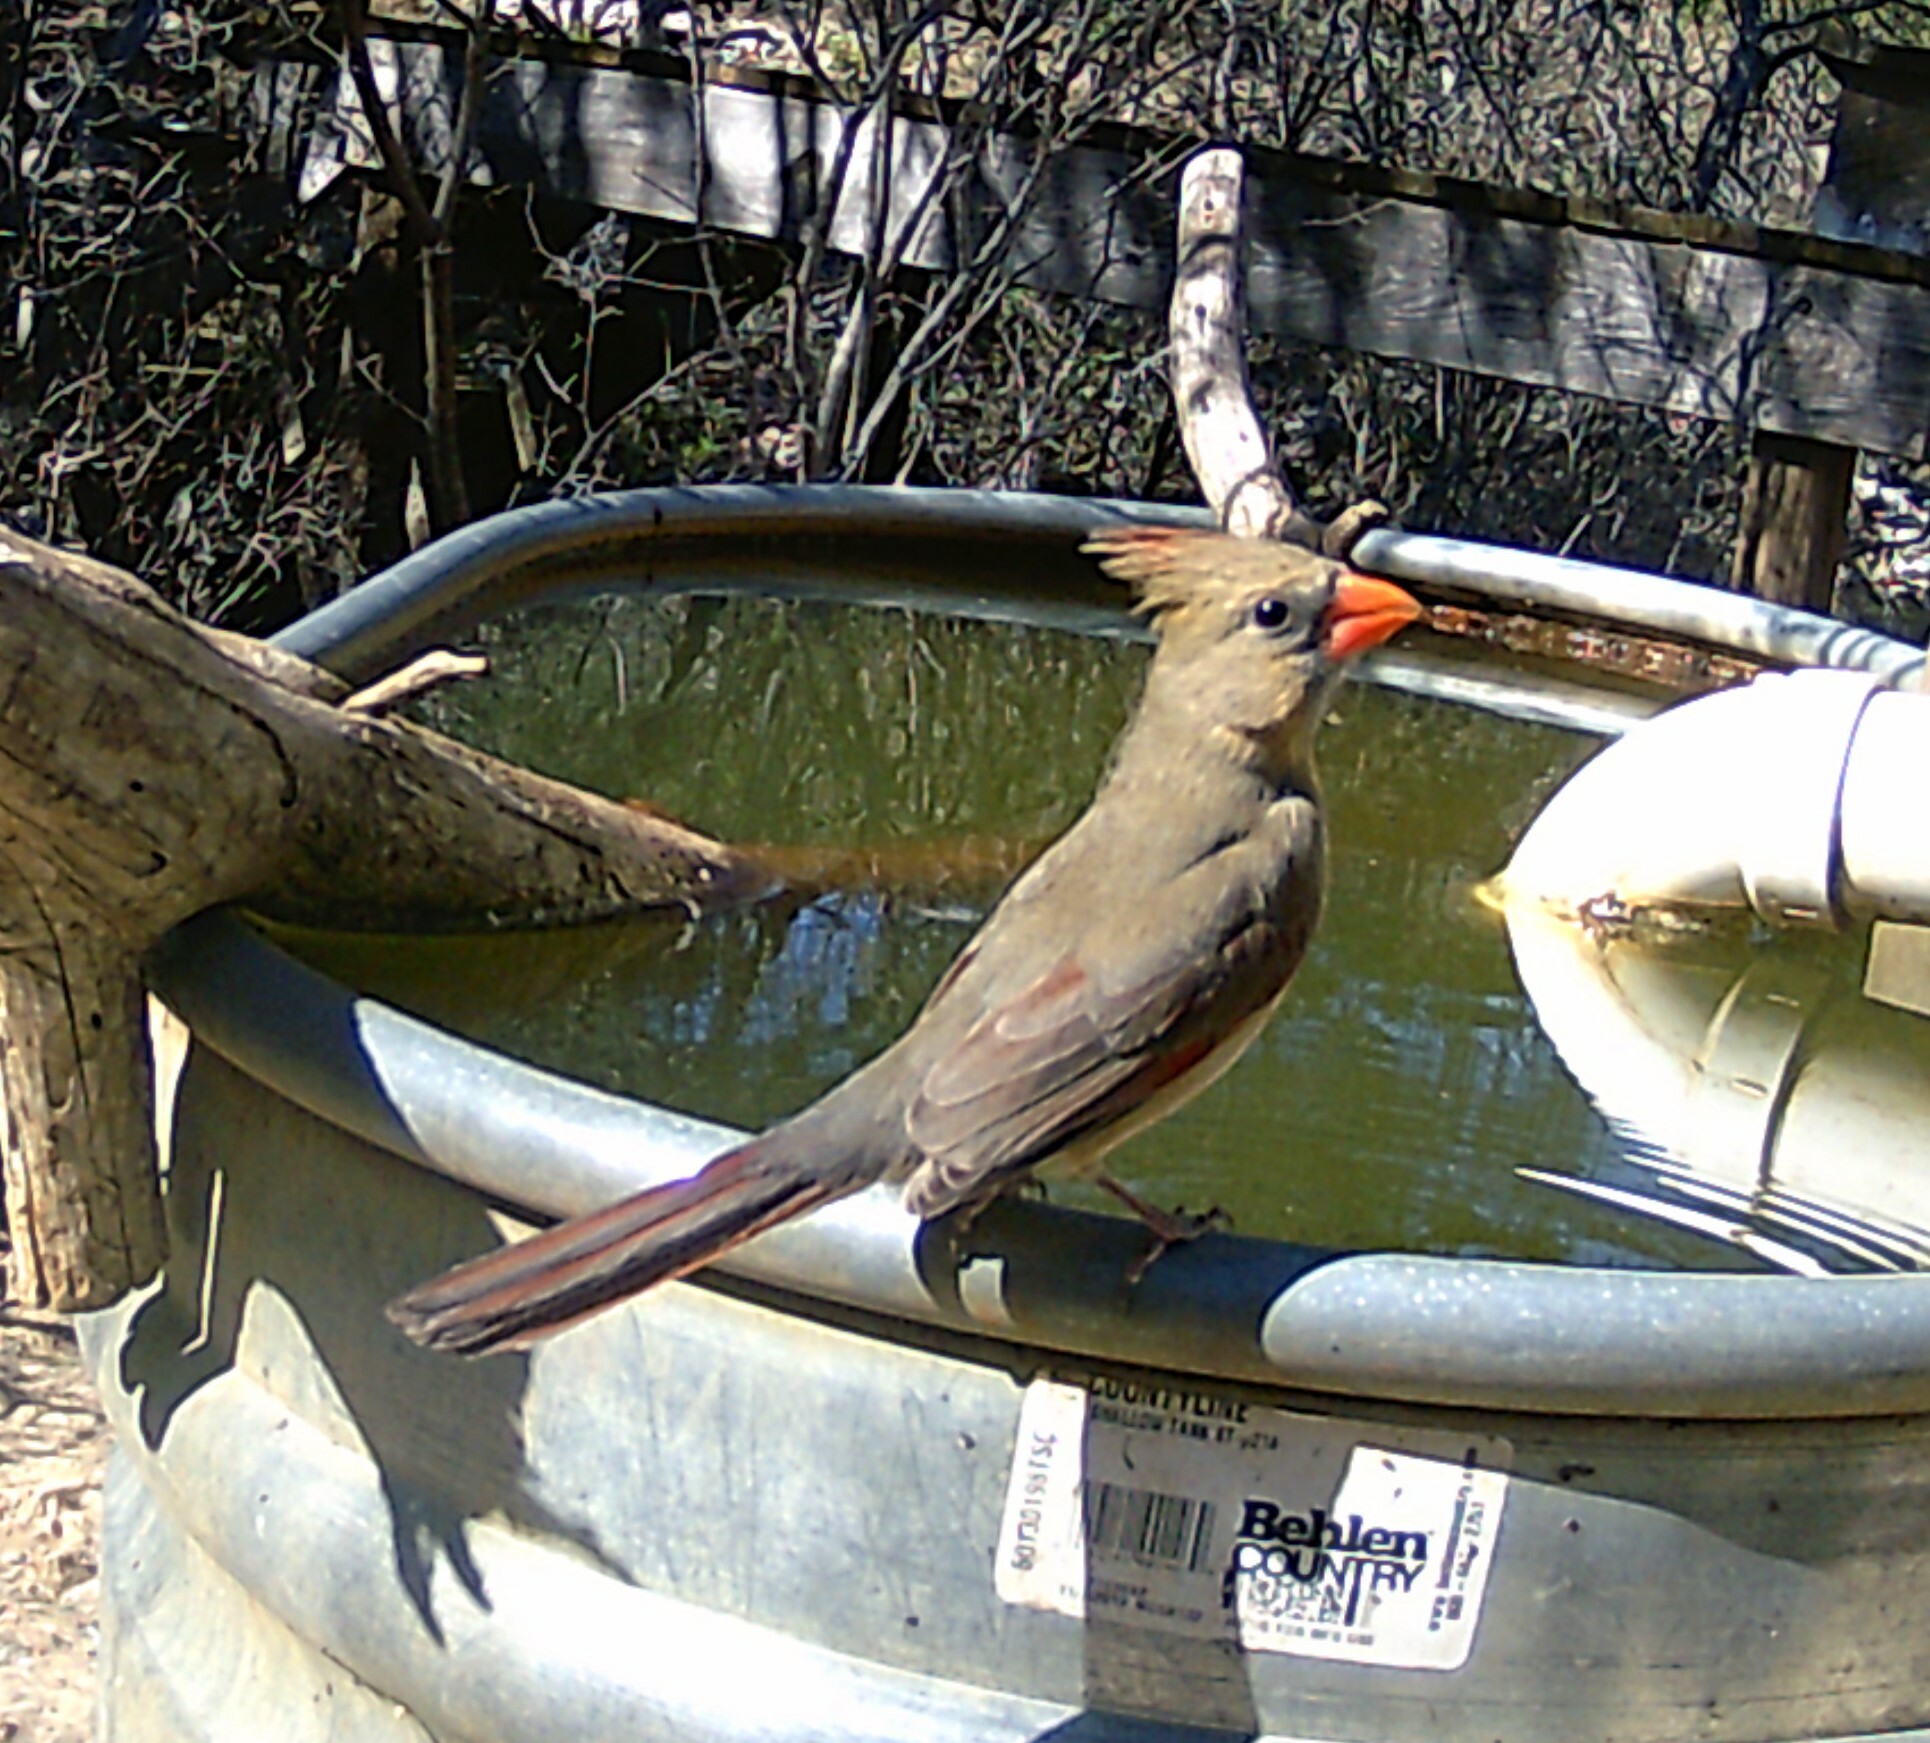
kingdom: Animalia
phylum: Chordata
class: Aves
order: Passeriformes
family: Cardinalidae
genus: Cardinalis
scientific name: Cardinalis cardinalis
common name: Northern cardinal
